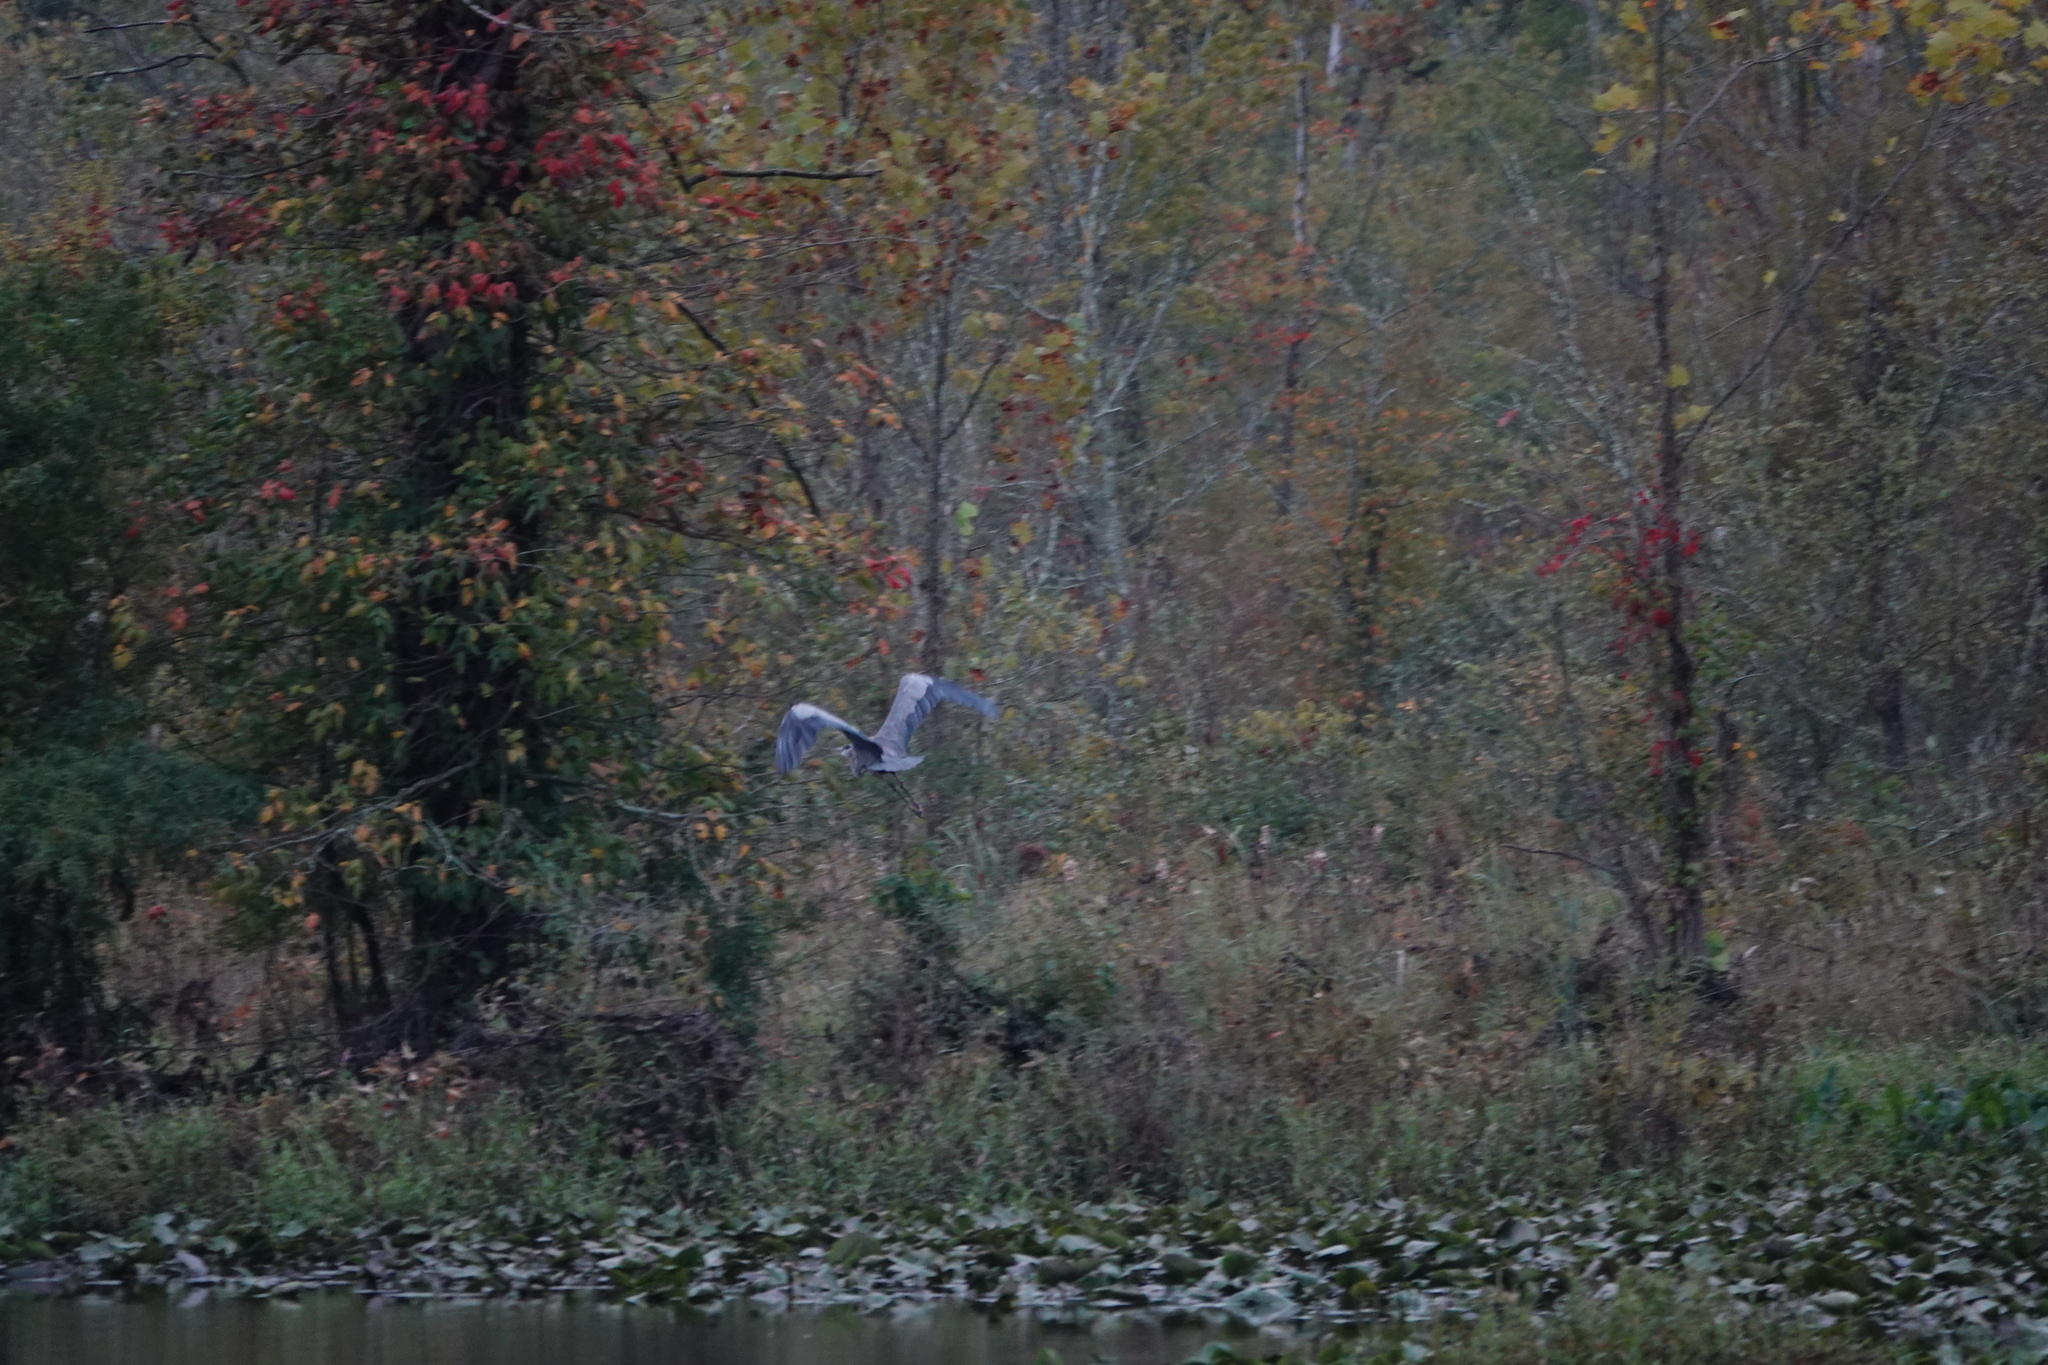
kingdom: Animalia
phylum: Chordata
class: Aves
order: Pelecaniformes
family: Ardeidae
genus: Ardea
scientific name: Ardea herodias
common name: Great blue heron
